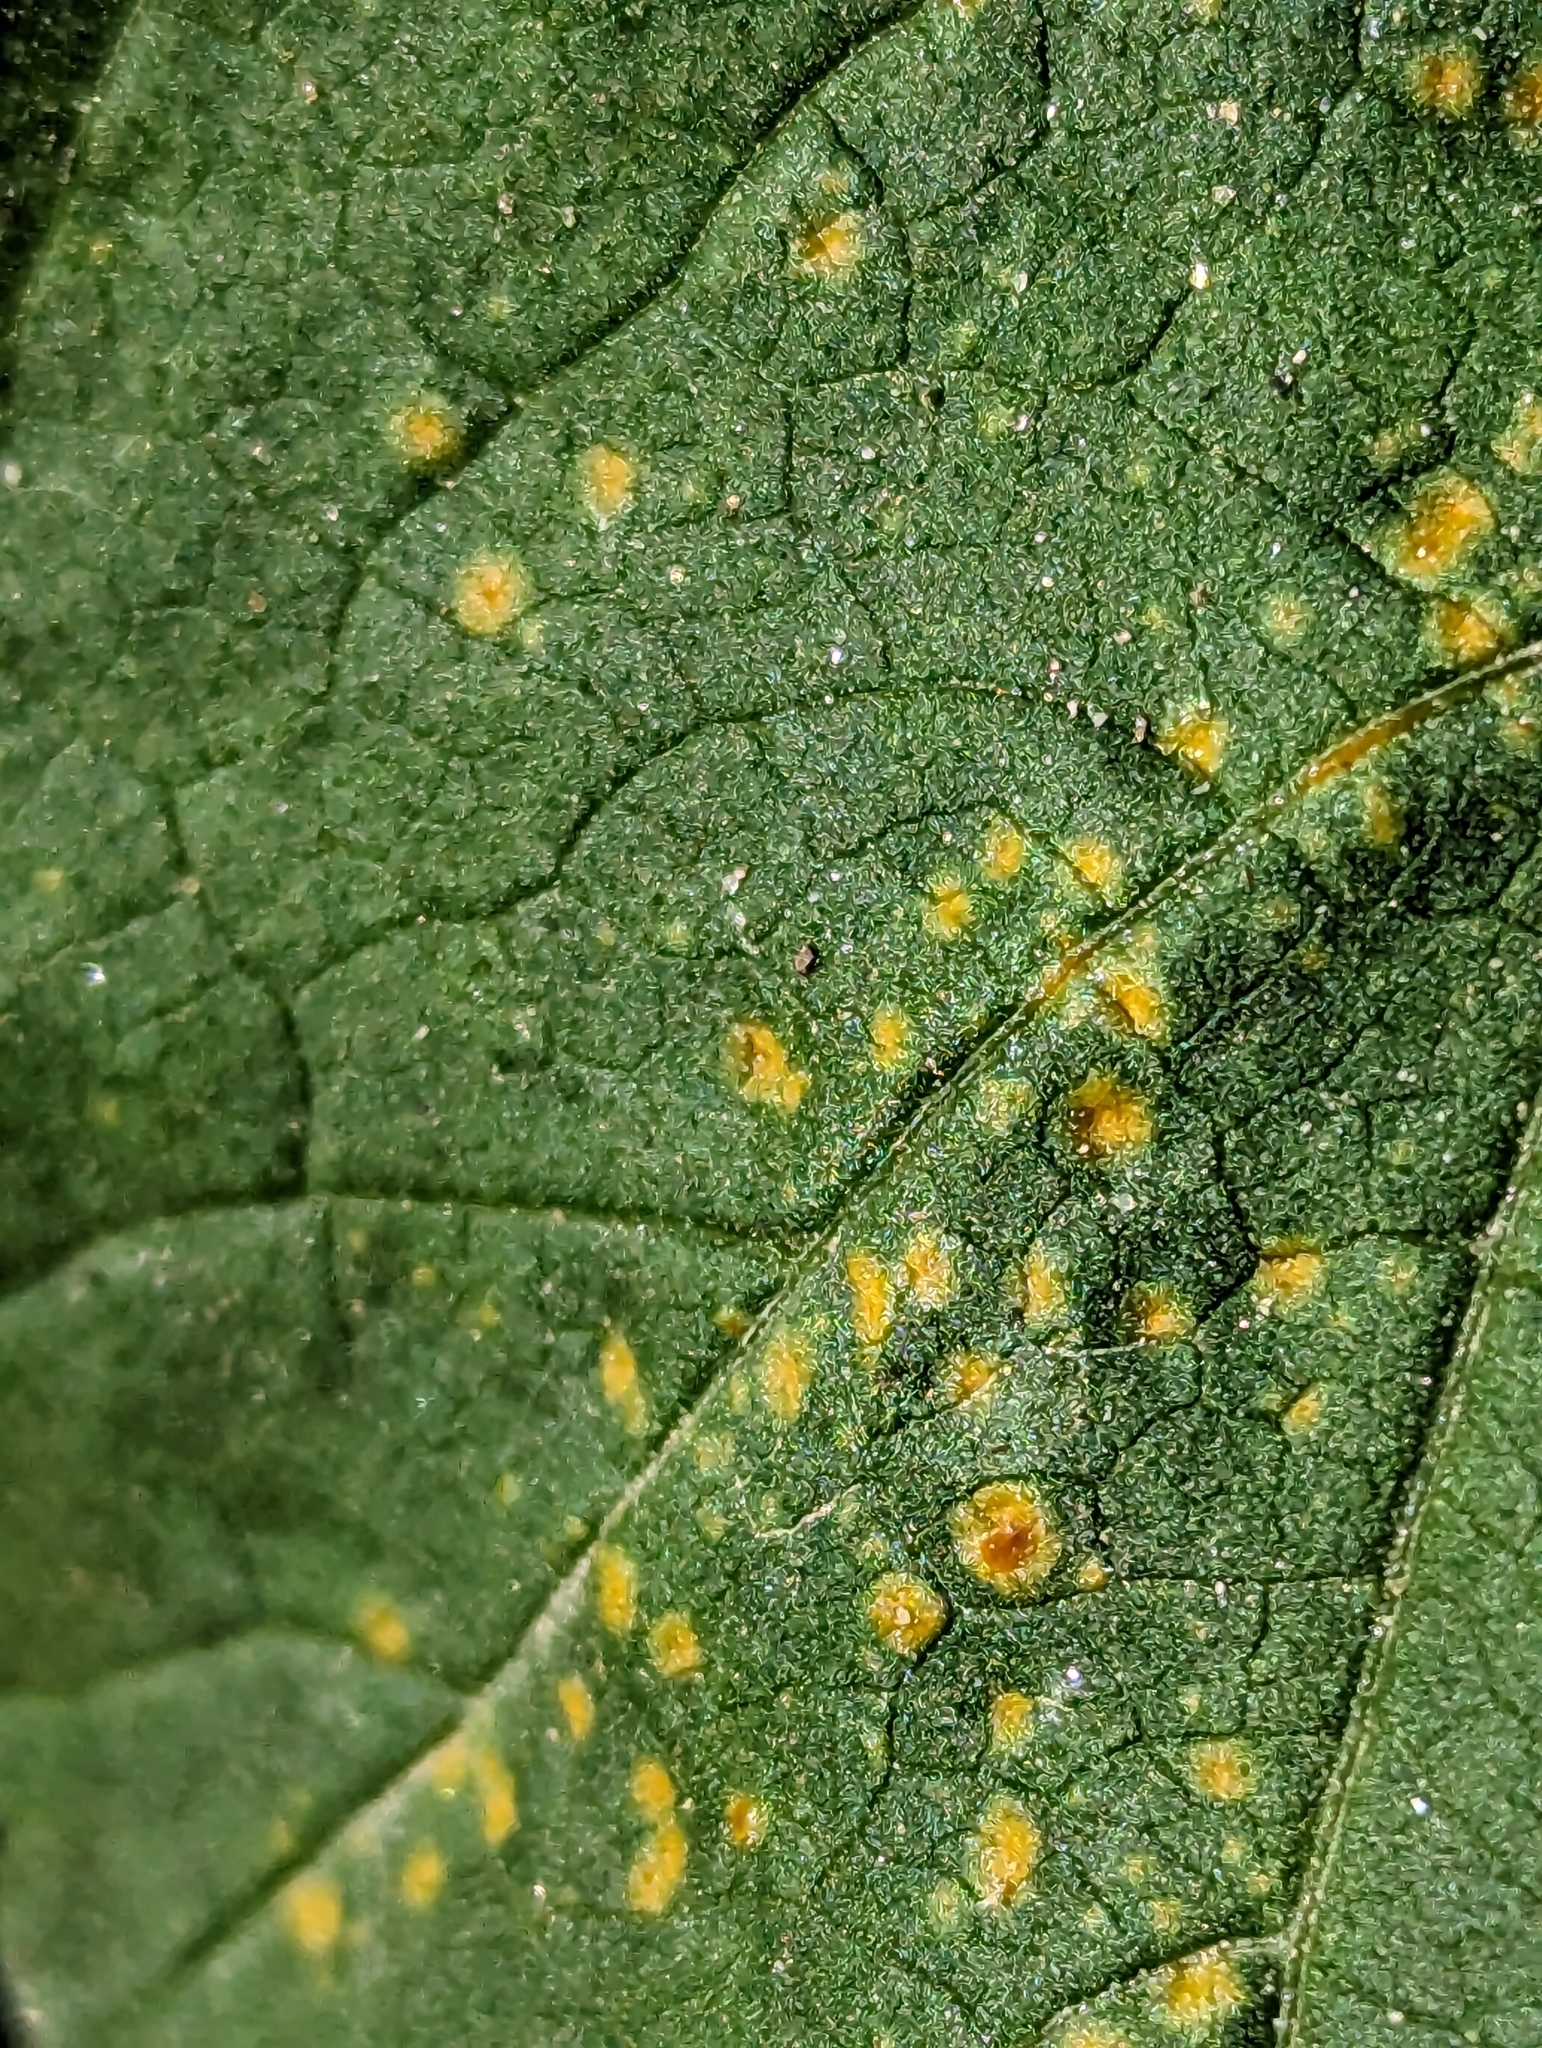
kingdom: Fungi
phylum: Basidiomycota
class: Pucciniomycetes
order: Pucciniales
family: Pucciniaceae
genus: Puccinia
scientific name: Puccinia malvacearum
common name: Hollyhock rust
